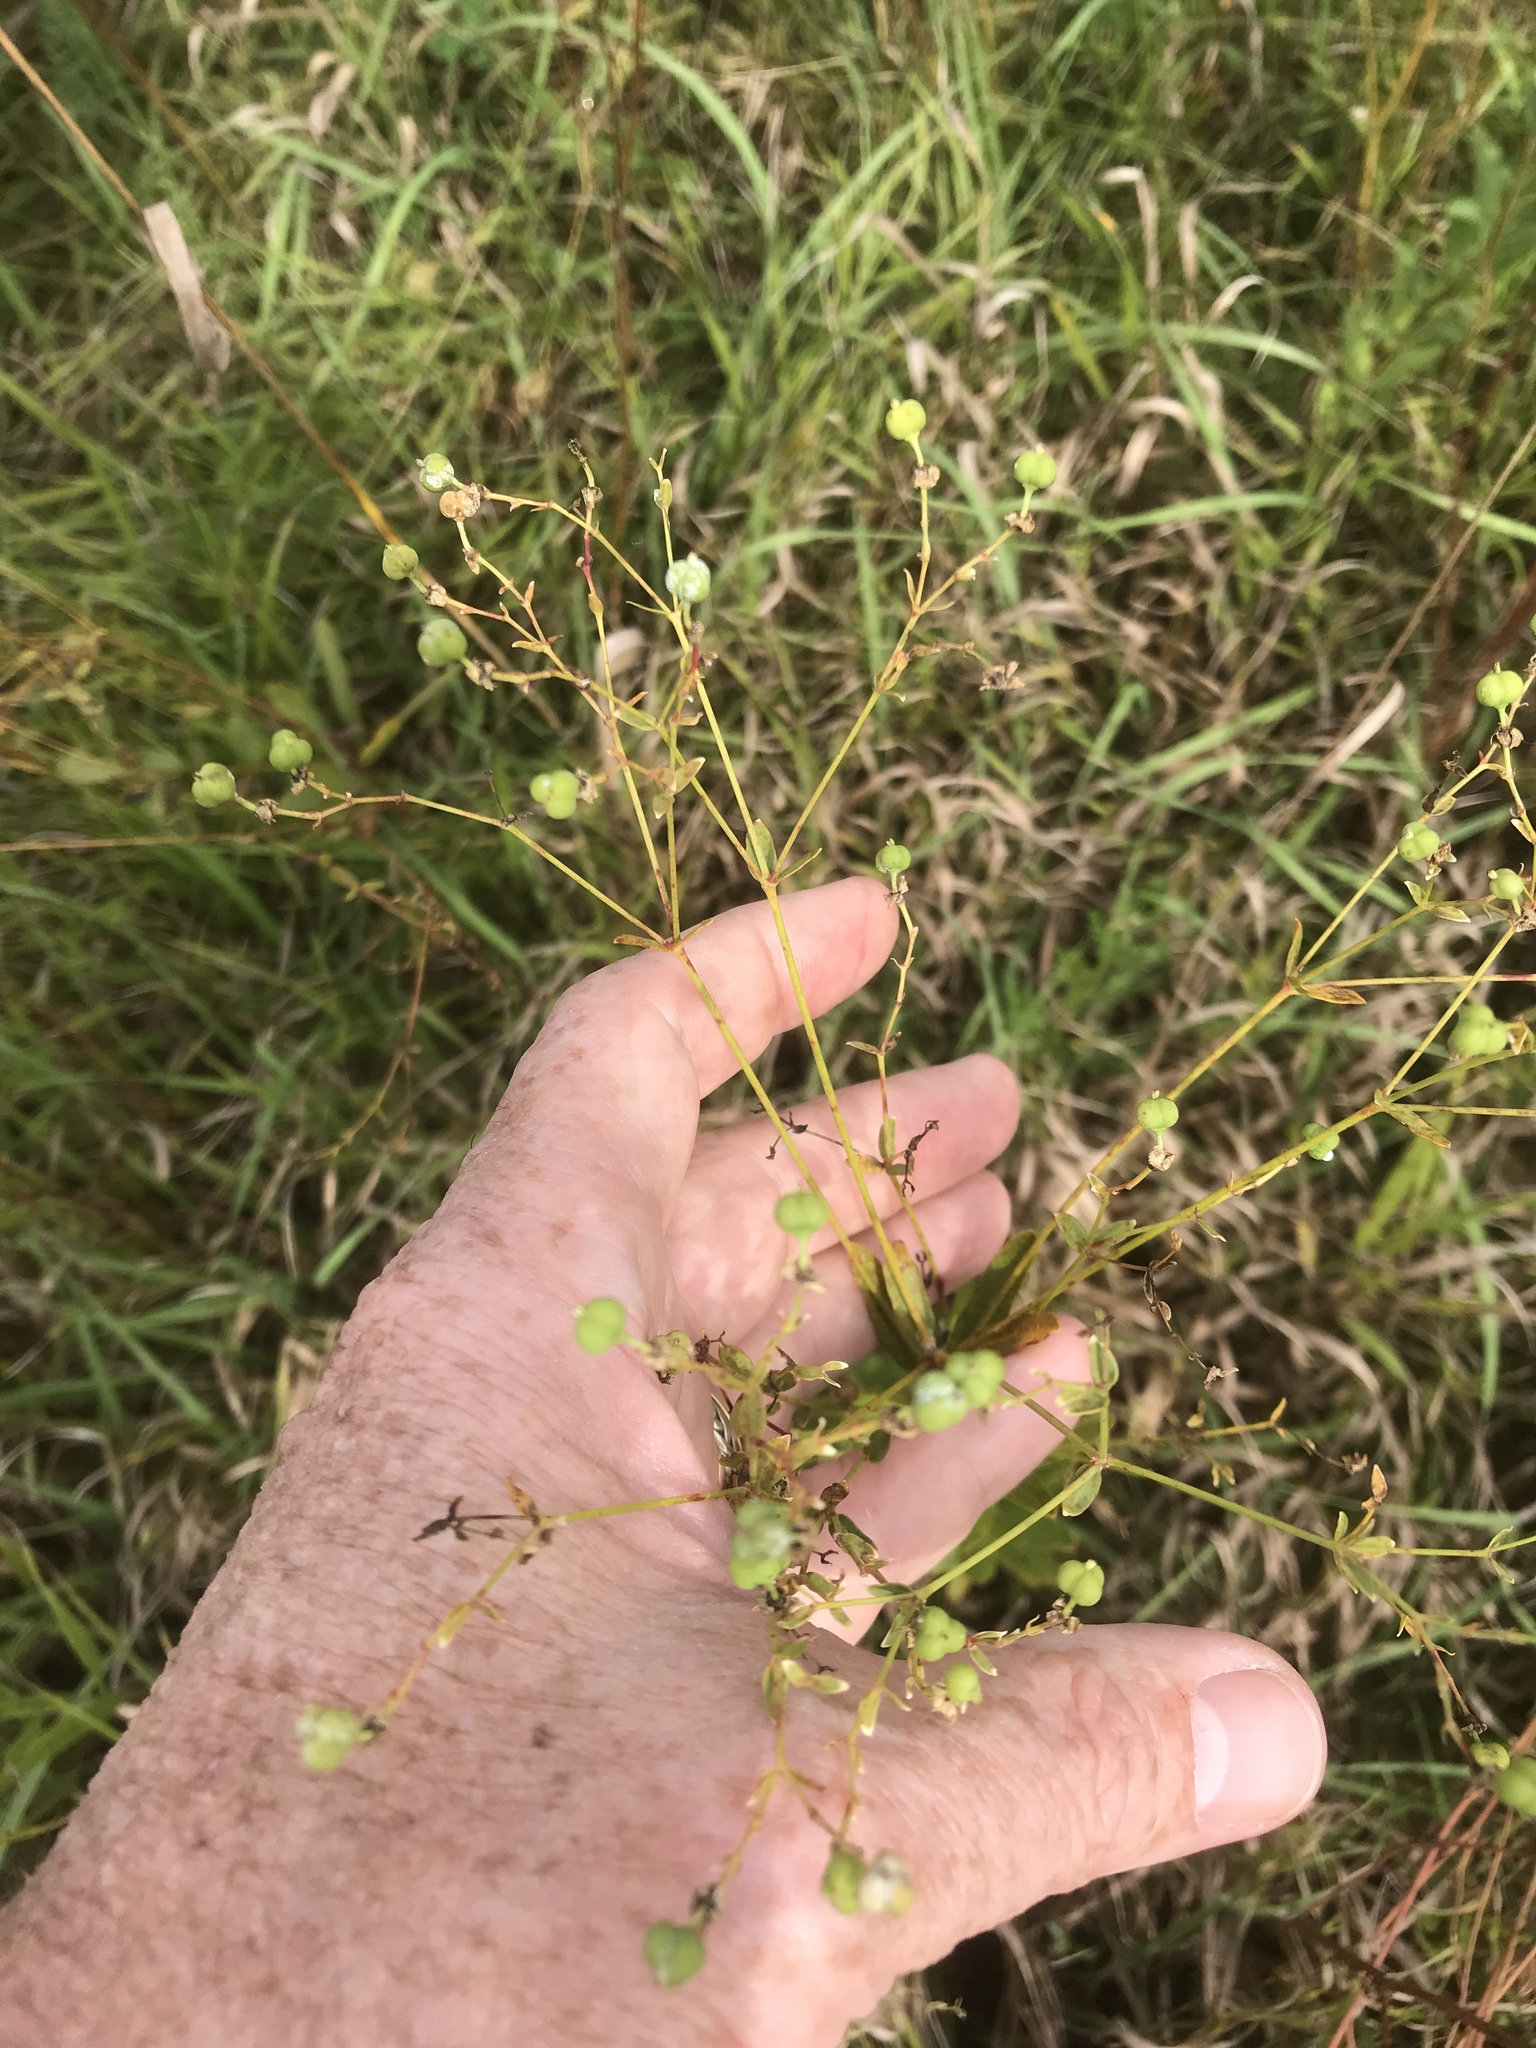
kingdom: Plantae
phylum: Tracheophyta
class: Magnoliopsida
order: Malpighiales
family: Euphorbiaceae
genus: Euphorbia
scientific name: Euphorbia corollata
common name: Flowering spurge
